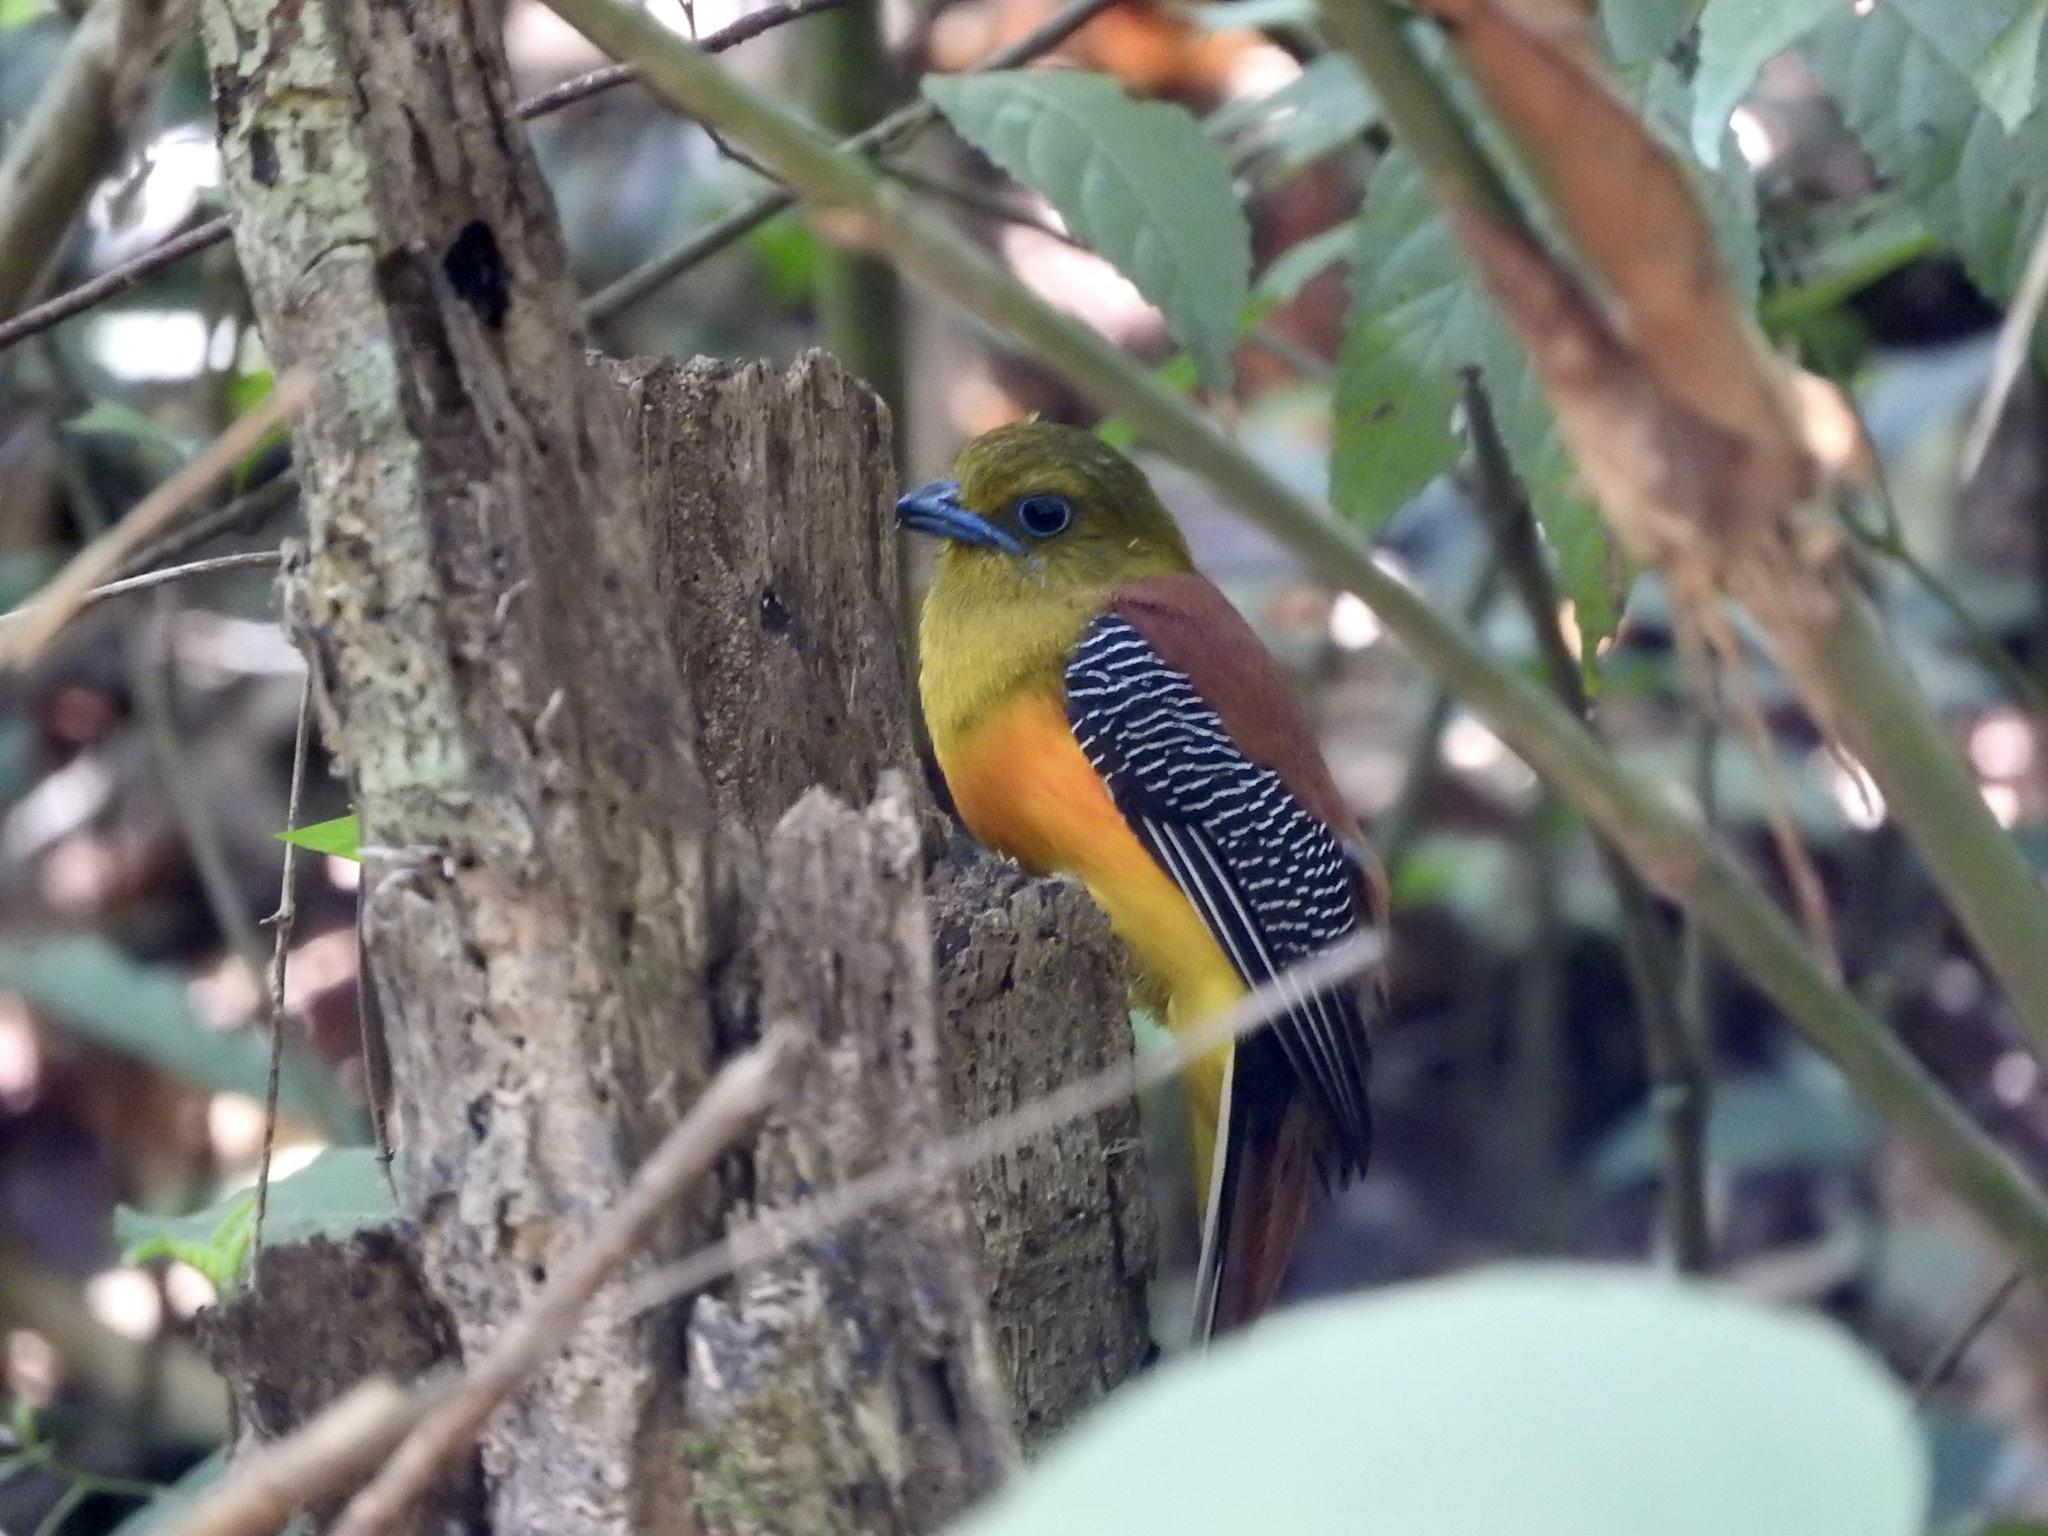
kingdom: Animalia
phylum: Chordata
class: Aves
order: Trogoniformes
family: Trogonidae
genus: Harpactes
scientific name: Harpactes oreskios
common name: Orange-breasted trogon
